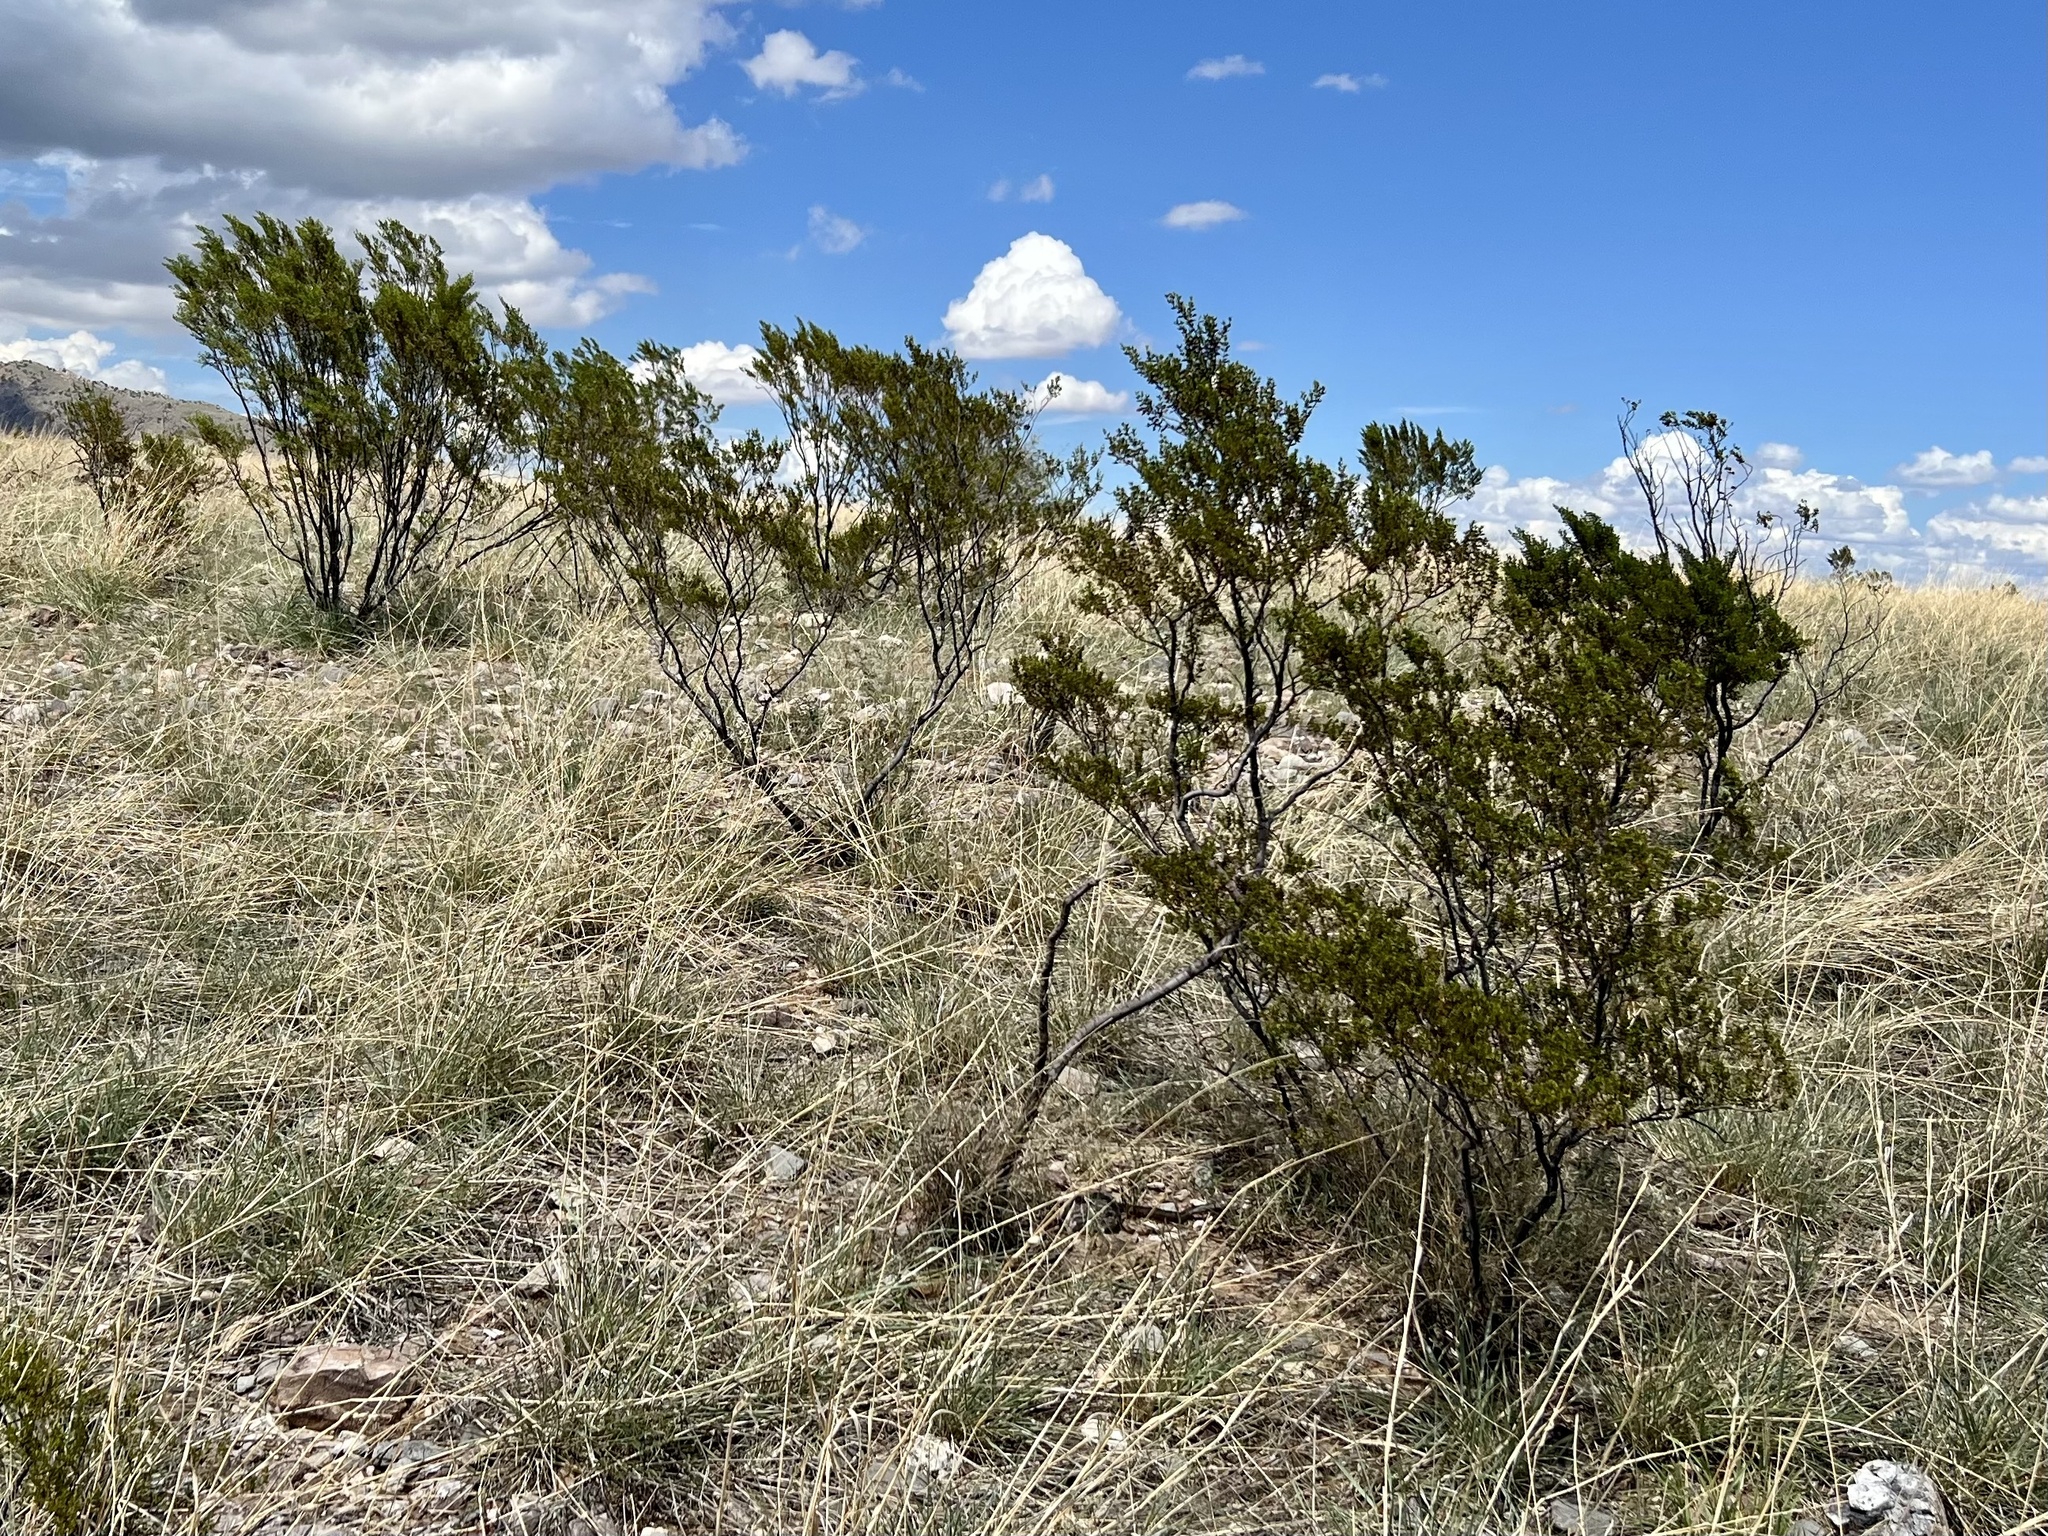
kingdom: Plantae
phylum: Tracheophyta
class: Magnoliopsida
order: Zygophyllales
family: Zygophyllaceae
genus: Larrea
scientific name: Larrea tridentata
